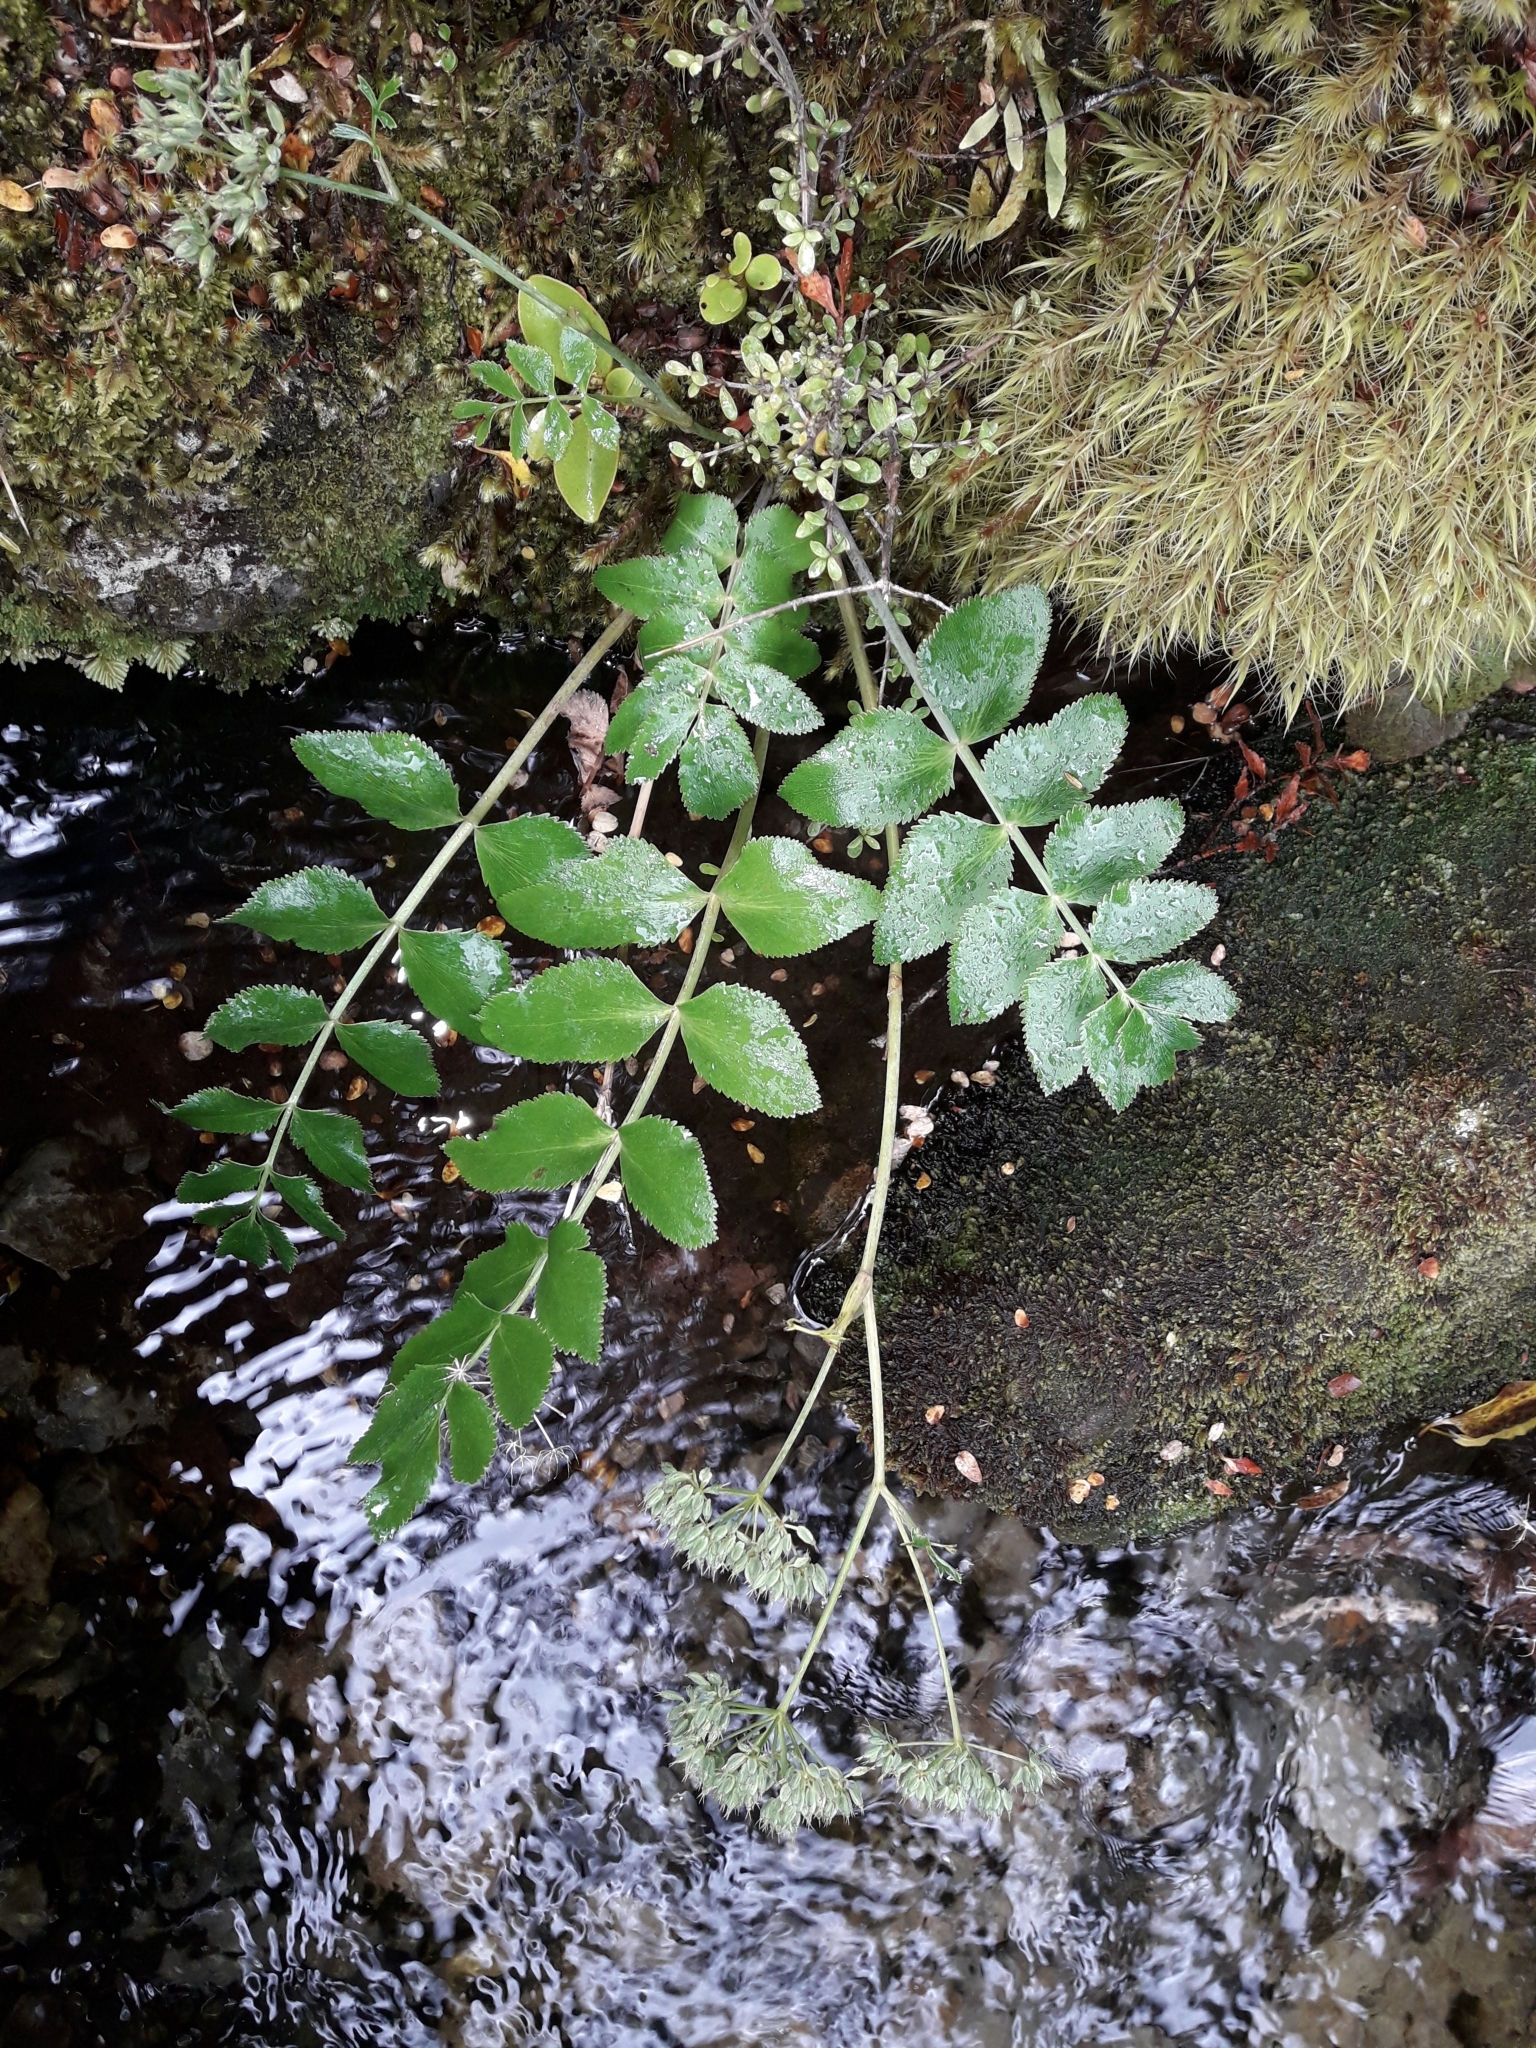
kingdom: Plantae
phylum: Tracheophyta
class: Magnoliopsida
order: Apiales
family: Apiaceae
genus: Gingidia
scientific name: Gingidia montana
